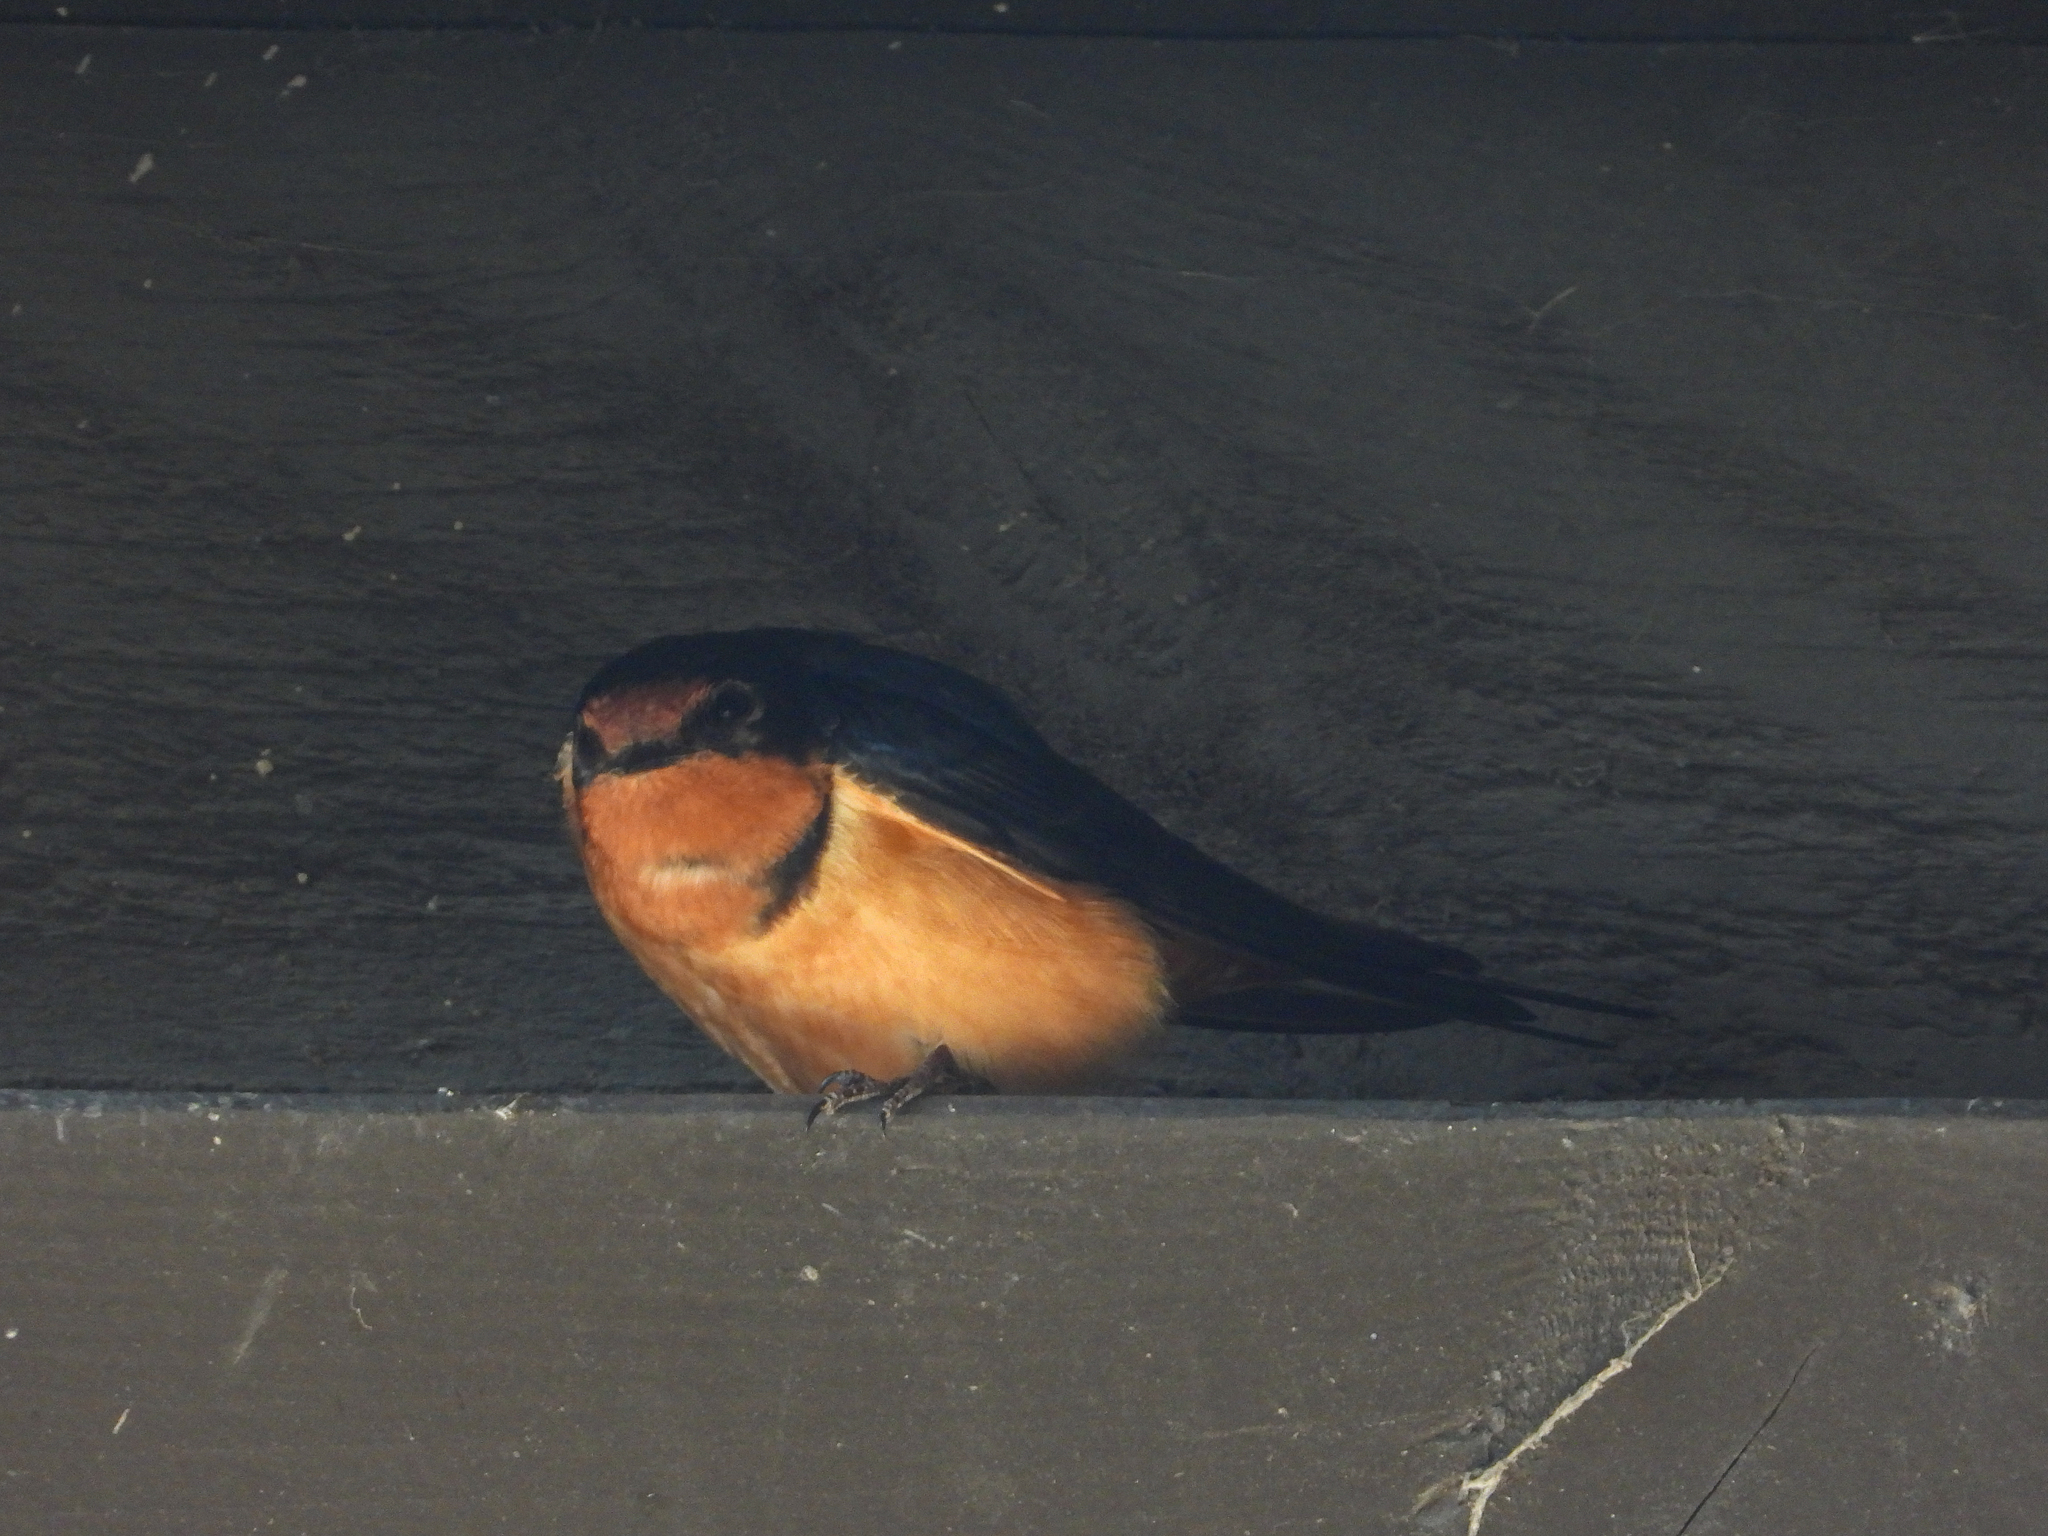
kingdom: Animalia
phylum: Chordata
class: Aves
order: Passeriformes
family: Hirundinidae
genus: Hirundo
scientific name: Hirundo rustica
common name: Barn swallow
